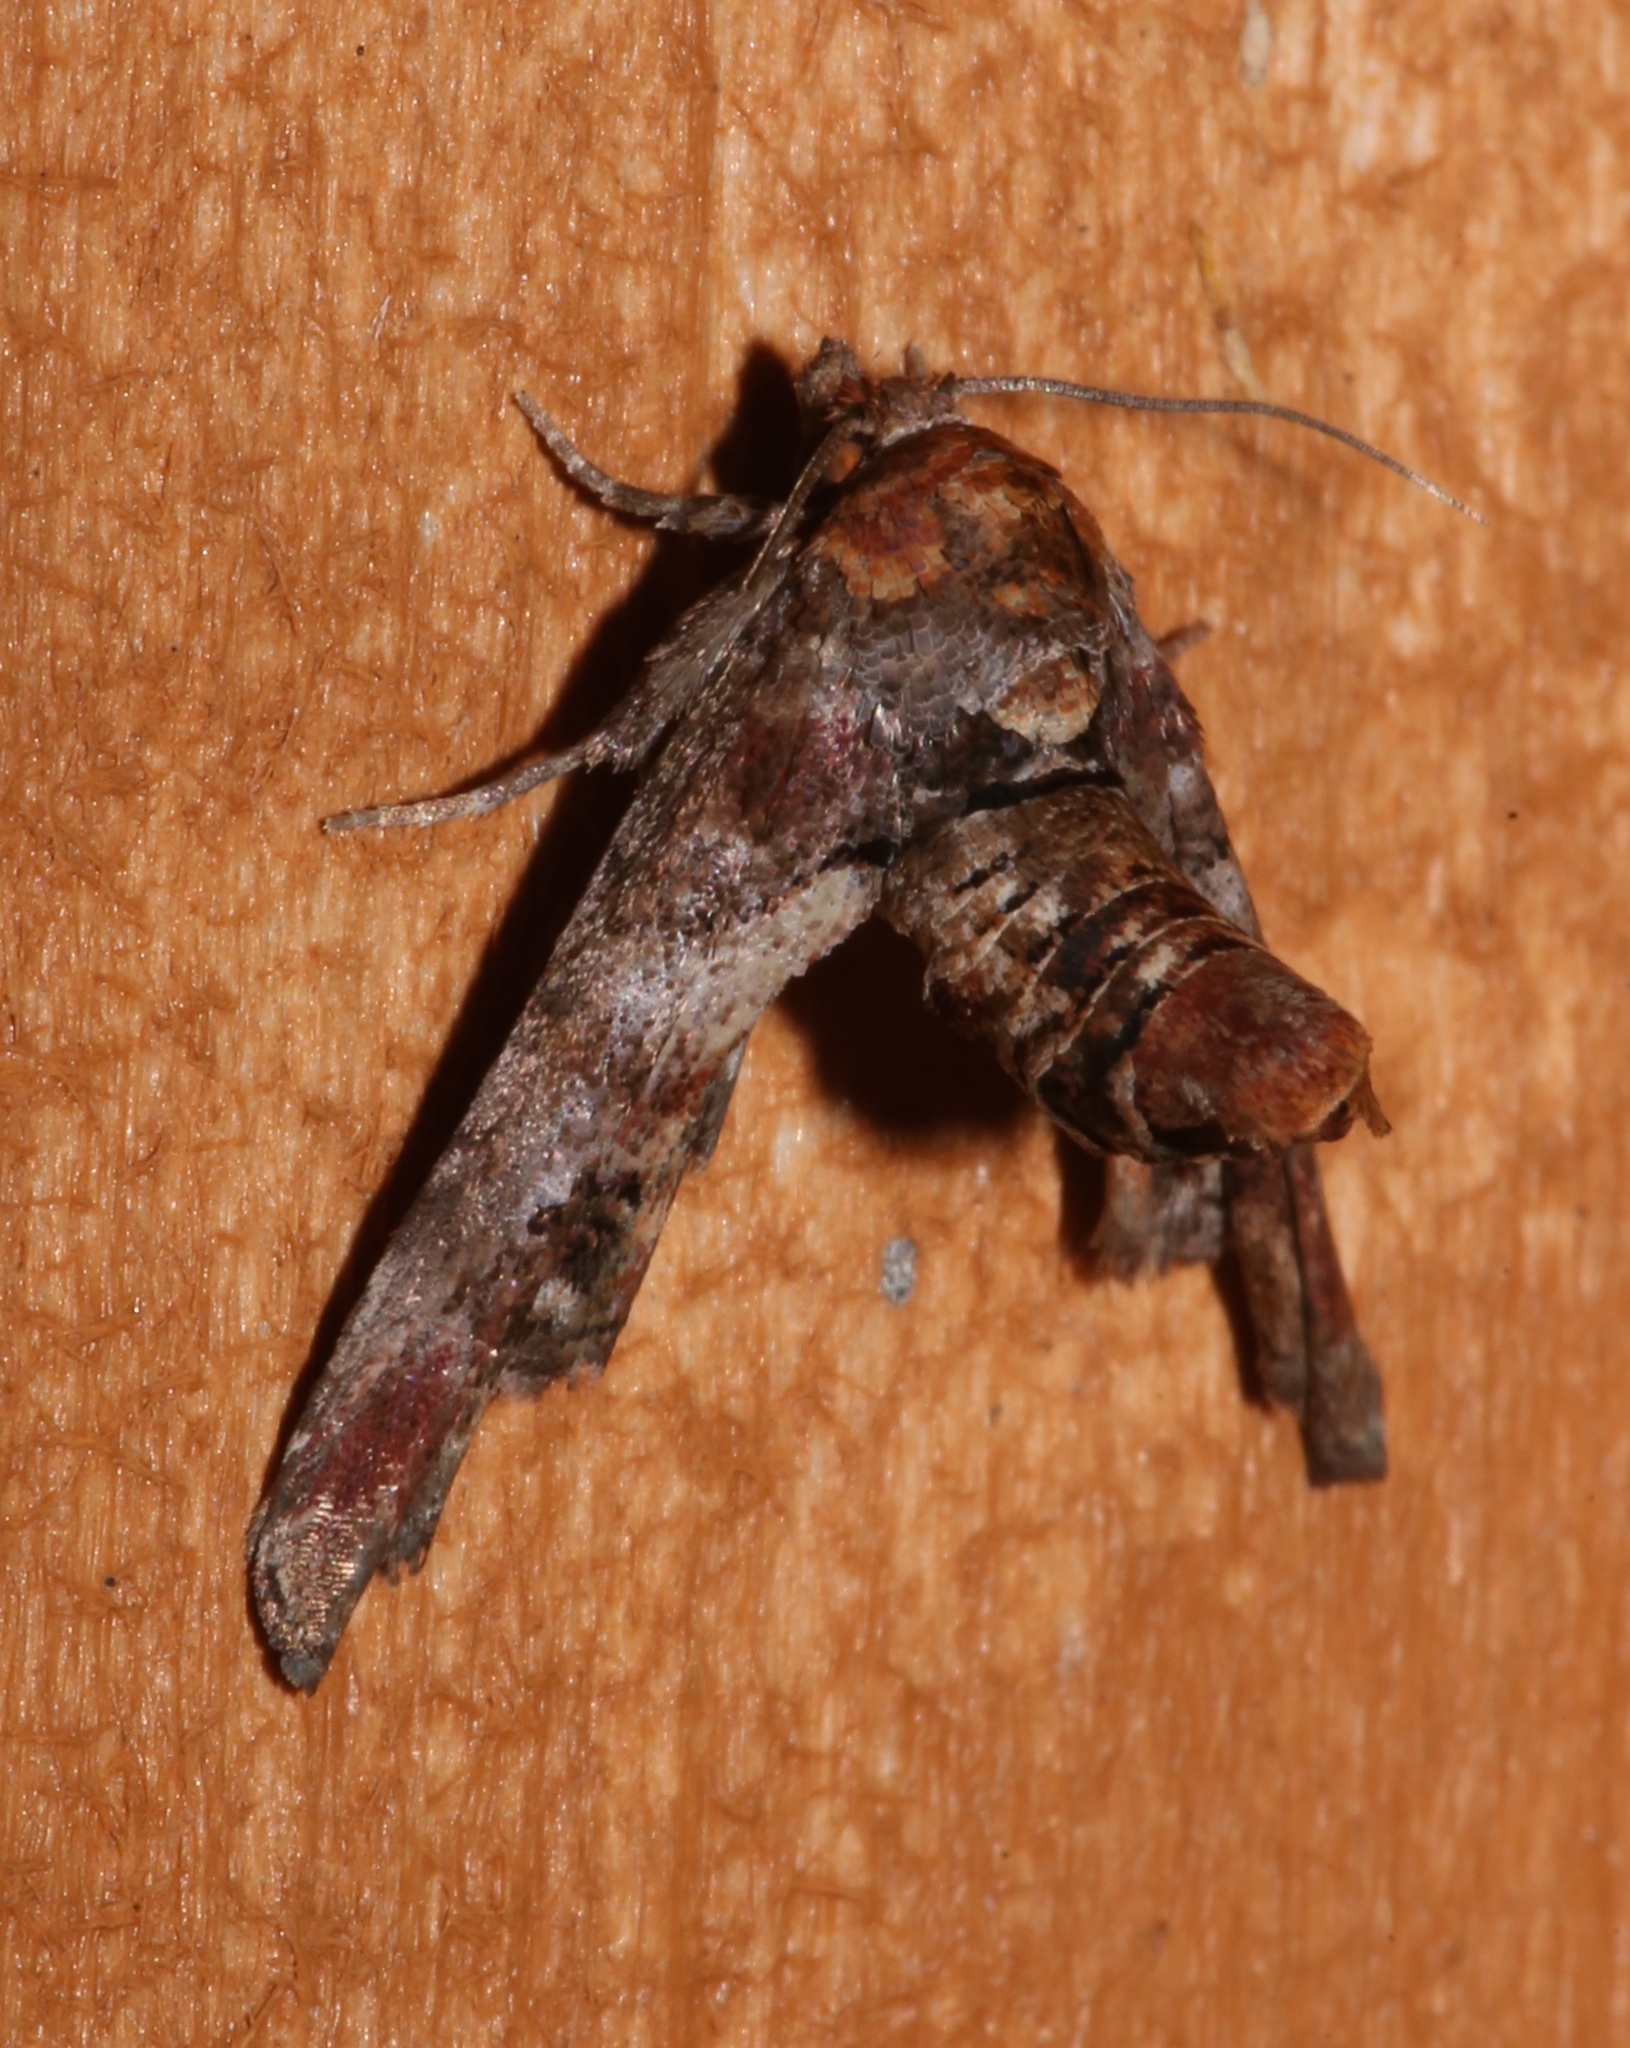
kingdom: Animalia
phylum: Arthropoda
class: Insecta
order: Lepidoptera
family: Euteliidae
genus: Marathyssa
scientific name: Marathyssa inficita
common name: Dark marathyssa moth
